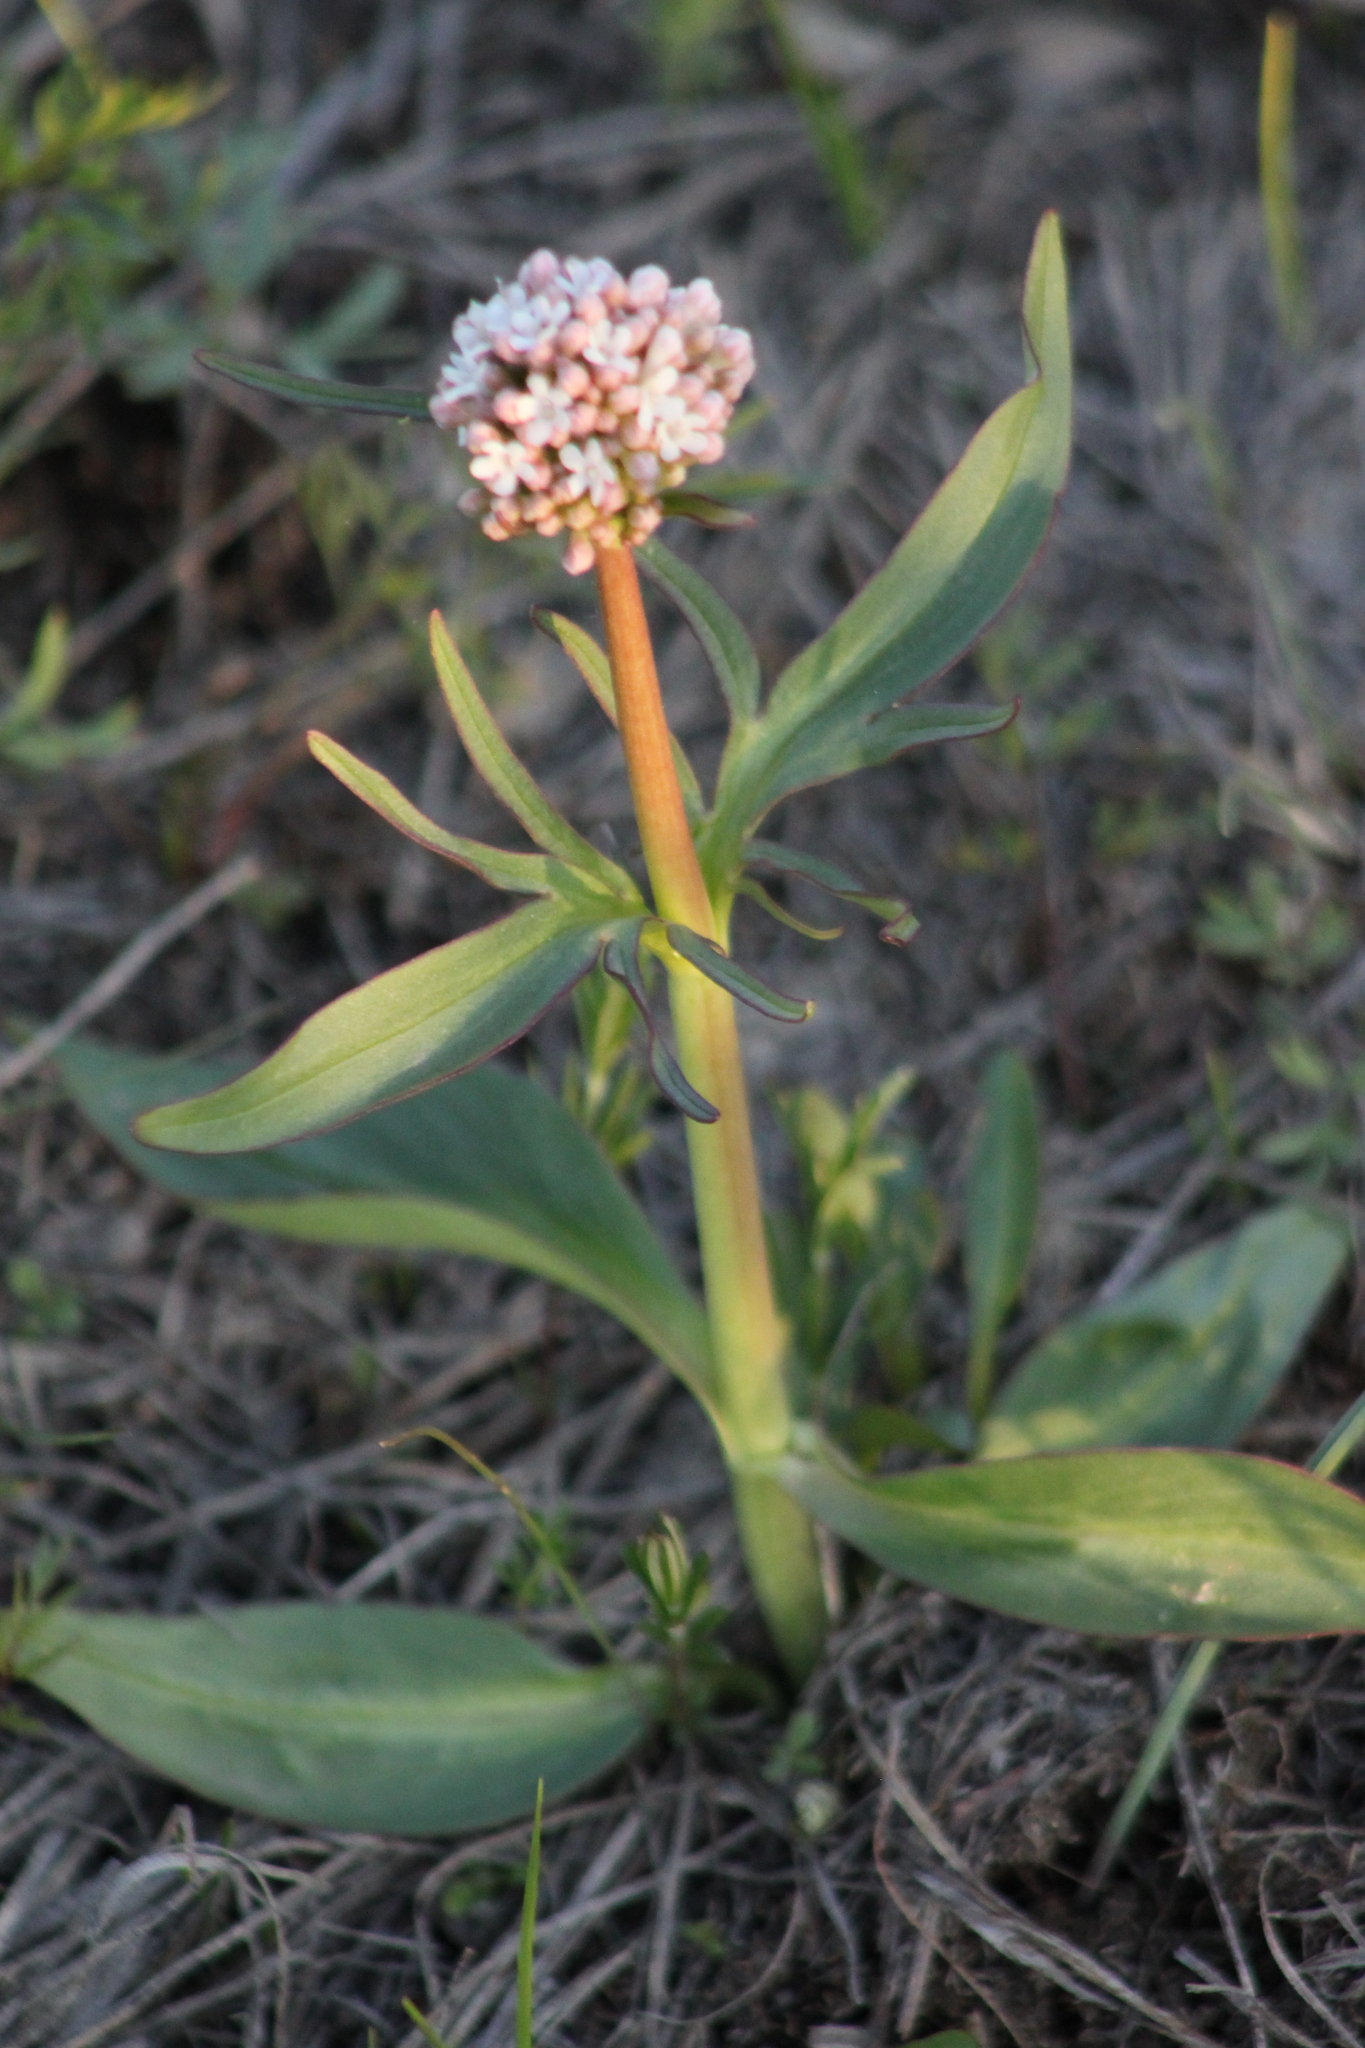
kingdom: Plantae
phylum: Tracheophyta
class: Magnoliopsida
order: Dipsacales
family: Caprifoliaceae
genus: Valeriana
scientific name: Valeriana tuberosa
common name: Tuberous valerian
